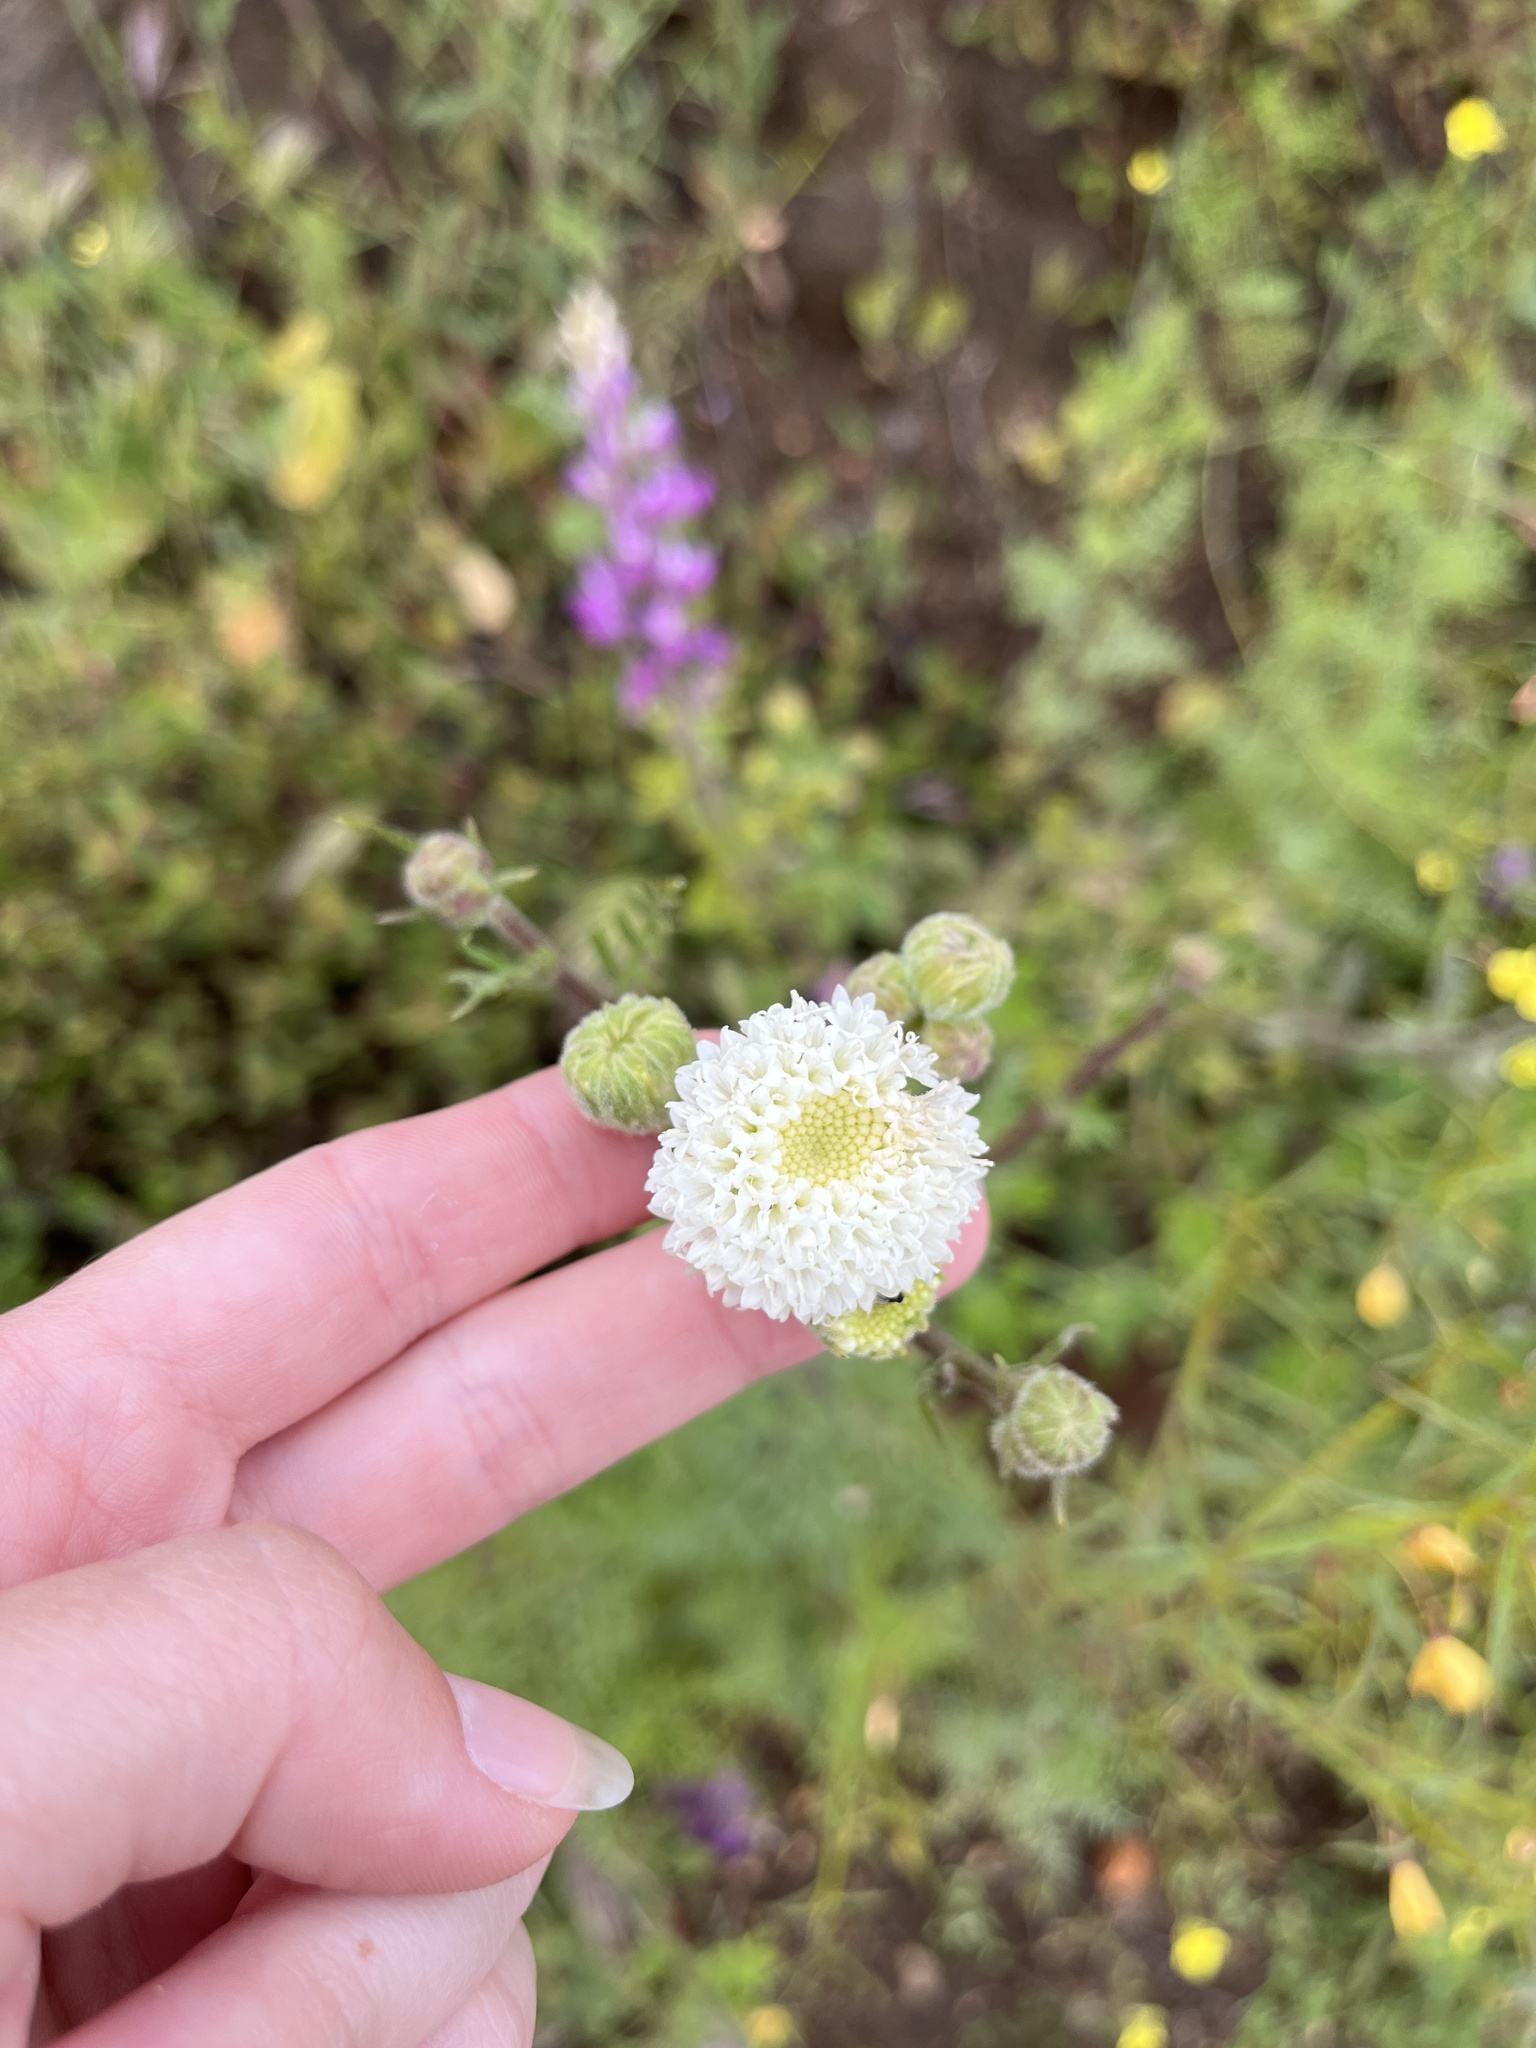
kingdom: Plantae
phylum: Tracheophyta
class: Magnoliopsida
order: Asterales
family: Asteraceae
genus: Chaenactis
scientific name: Chaenactis artemisiifolia
